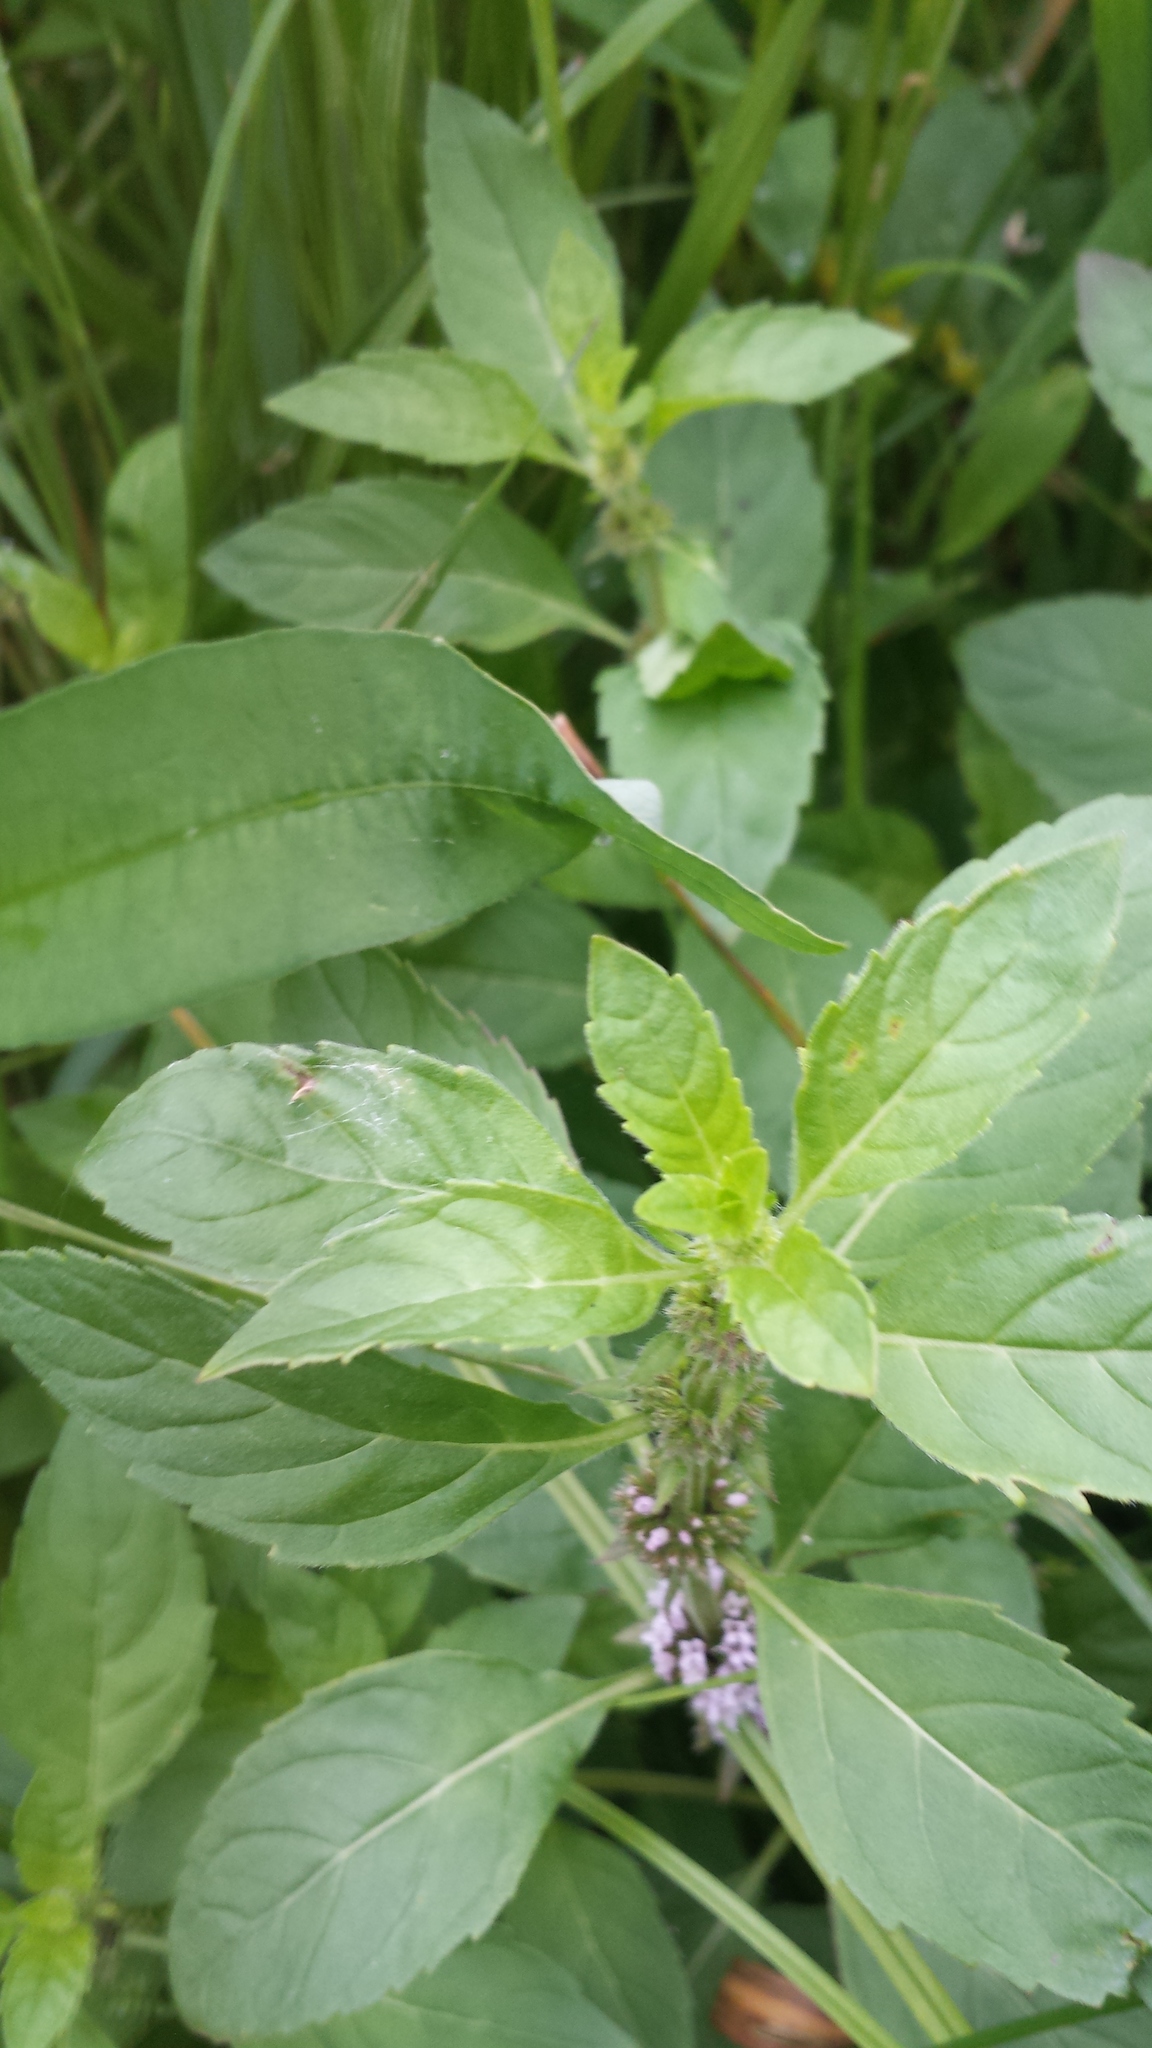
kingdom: Plantae
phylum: Tracheophyta
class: Magnoliopsida
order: Lamiales
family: Lamiaceae
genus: Mentha
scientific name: Mentha arvensis
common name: Corn mint
